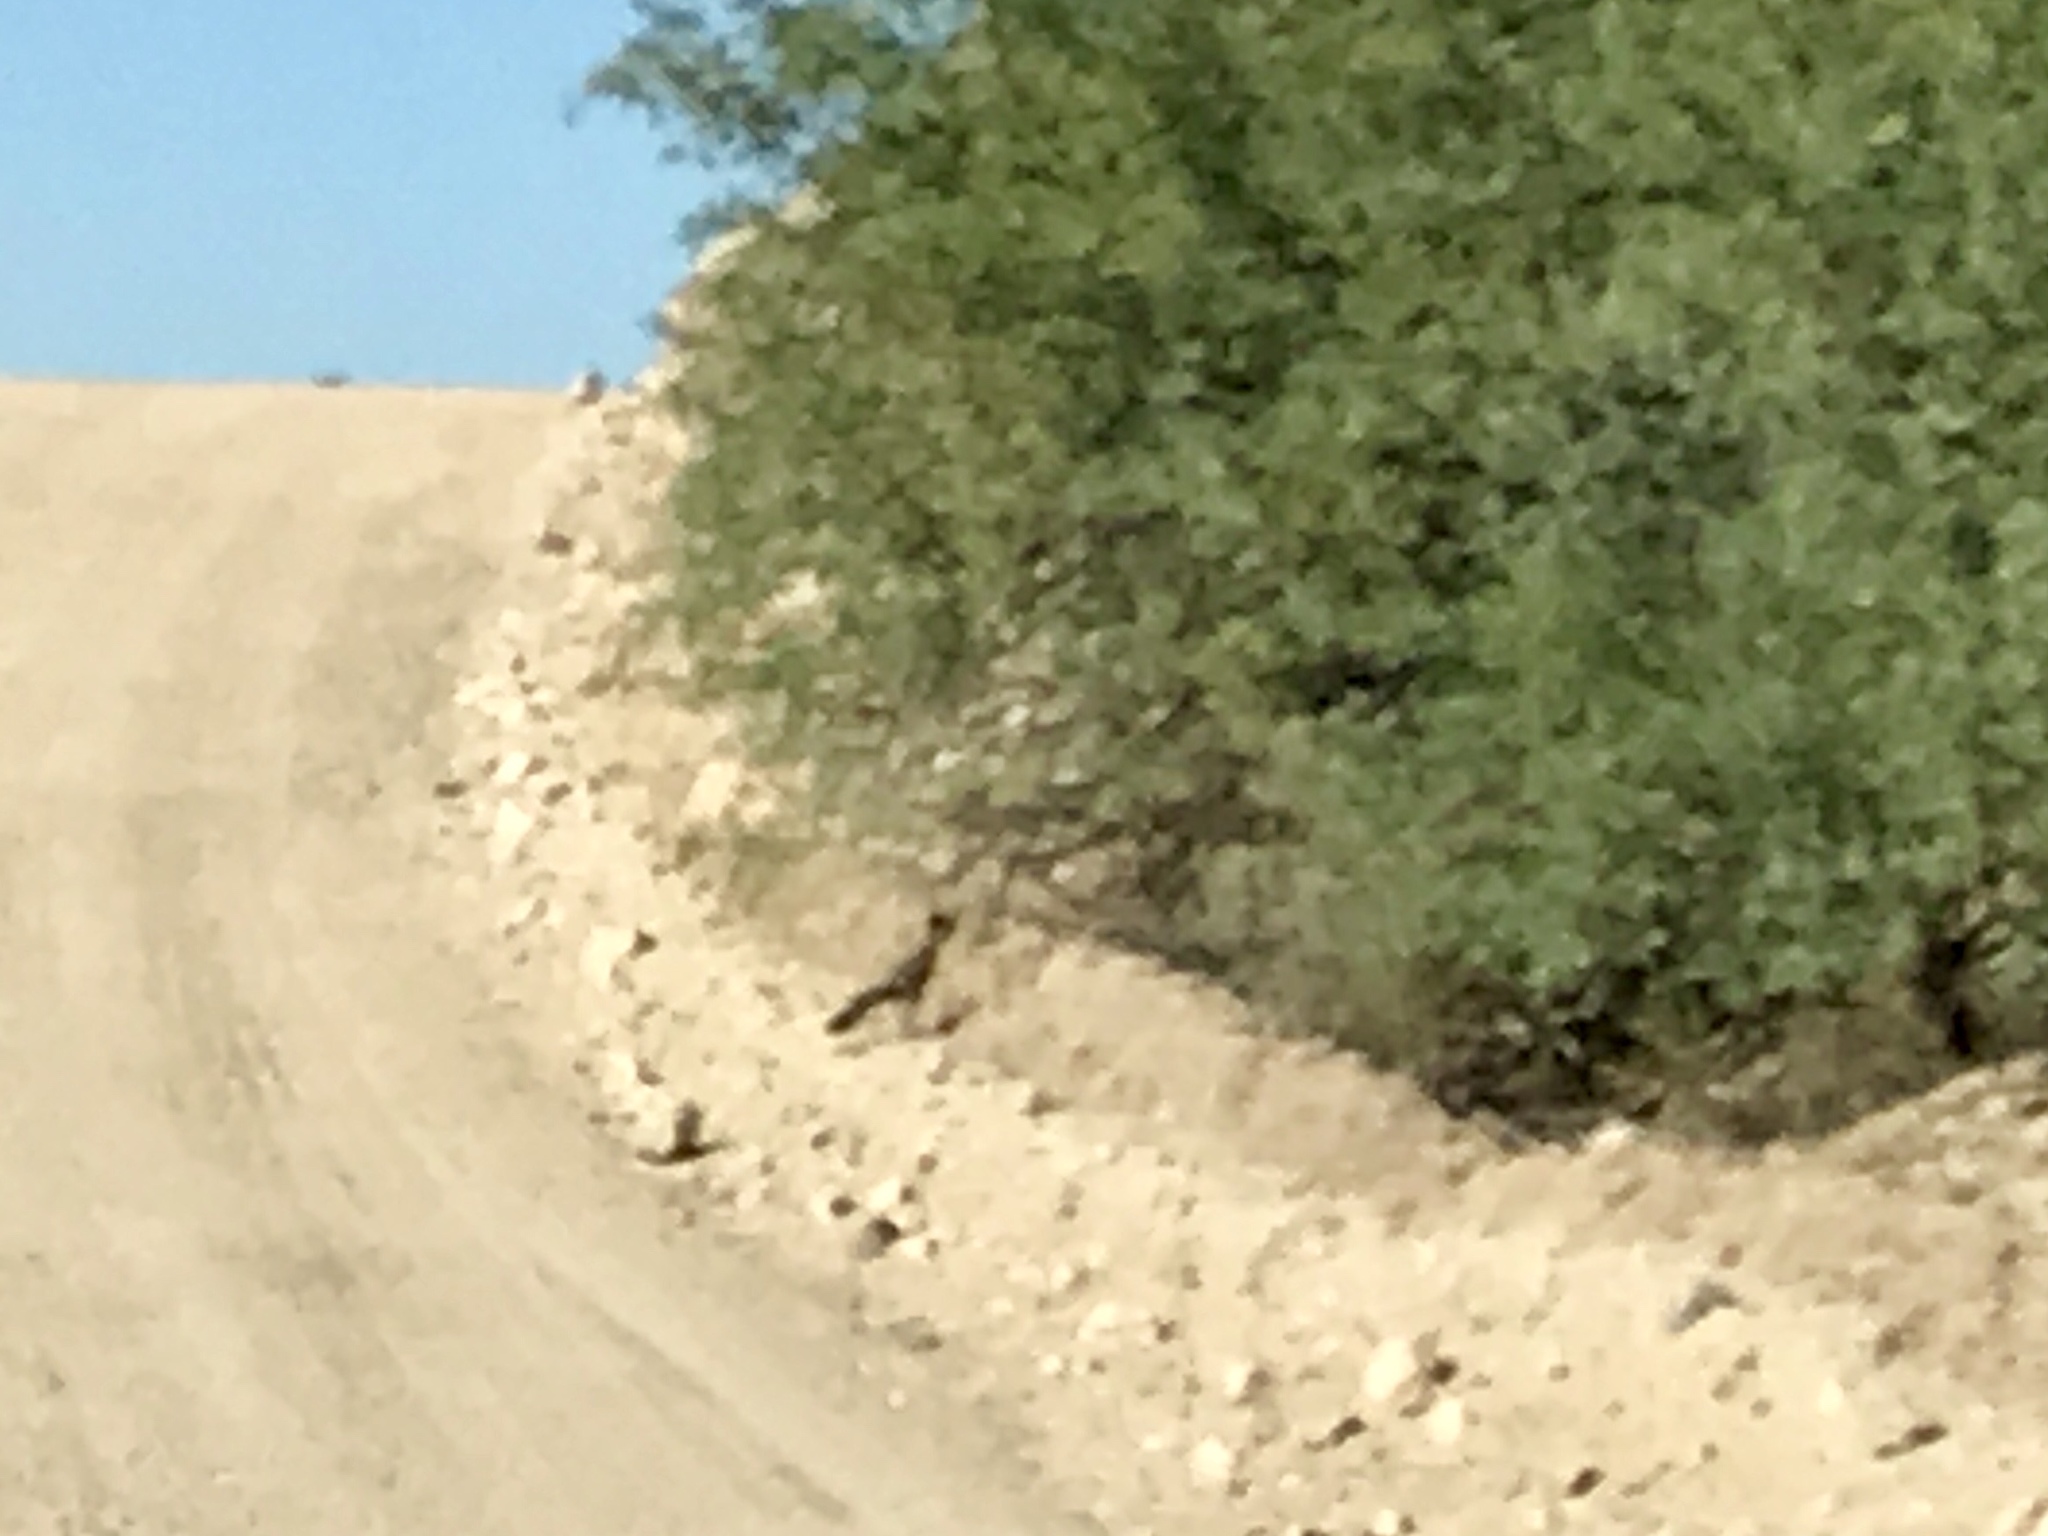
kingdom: Animalia
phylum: Chordata
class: Aves
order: Cuculiformes
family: Cuculidae
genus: Geococcyx
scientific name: Geococcyx californianus
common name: Greater roadrunner
